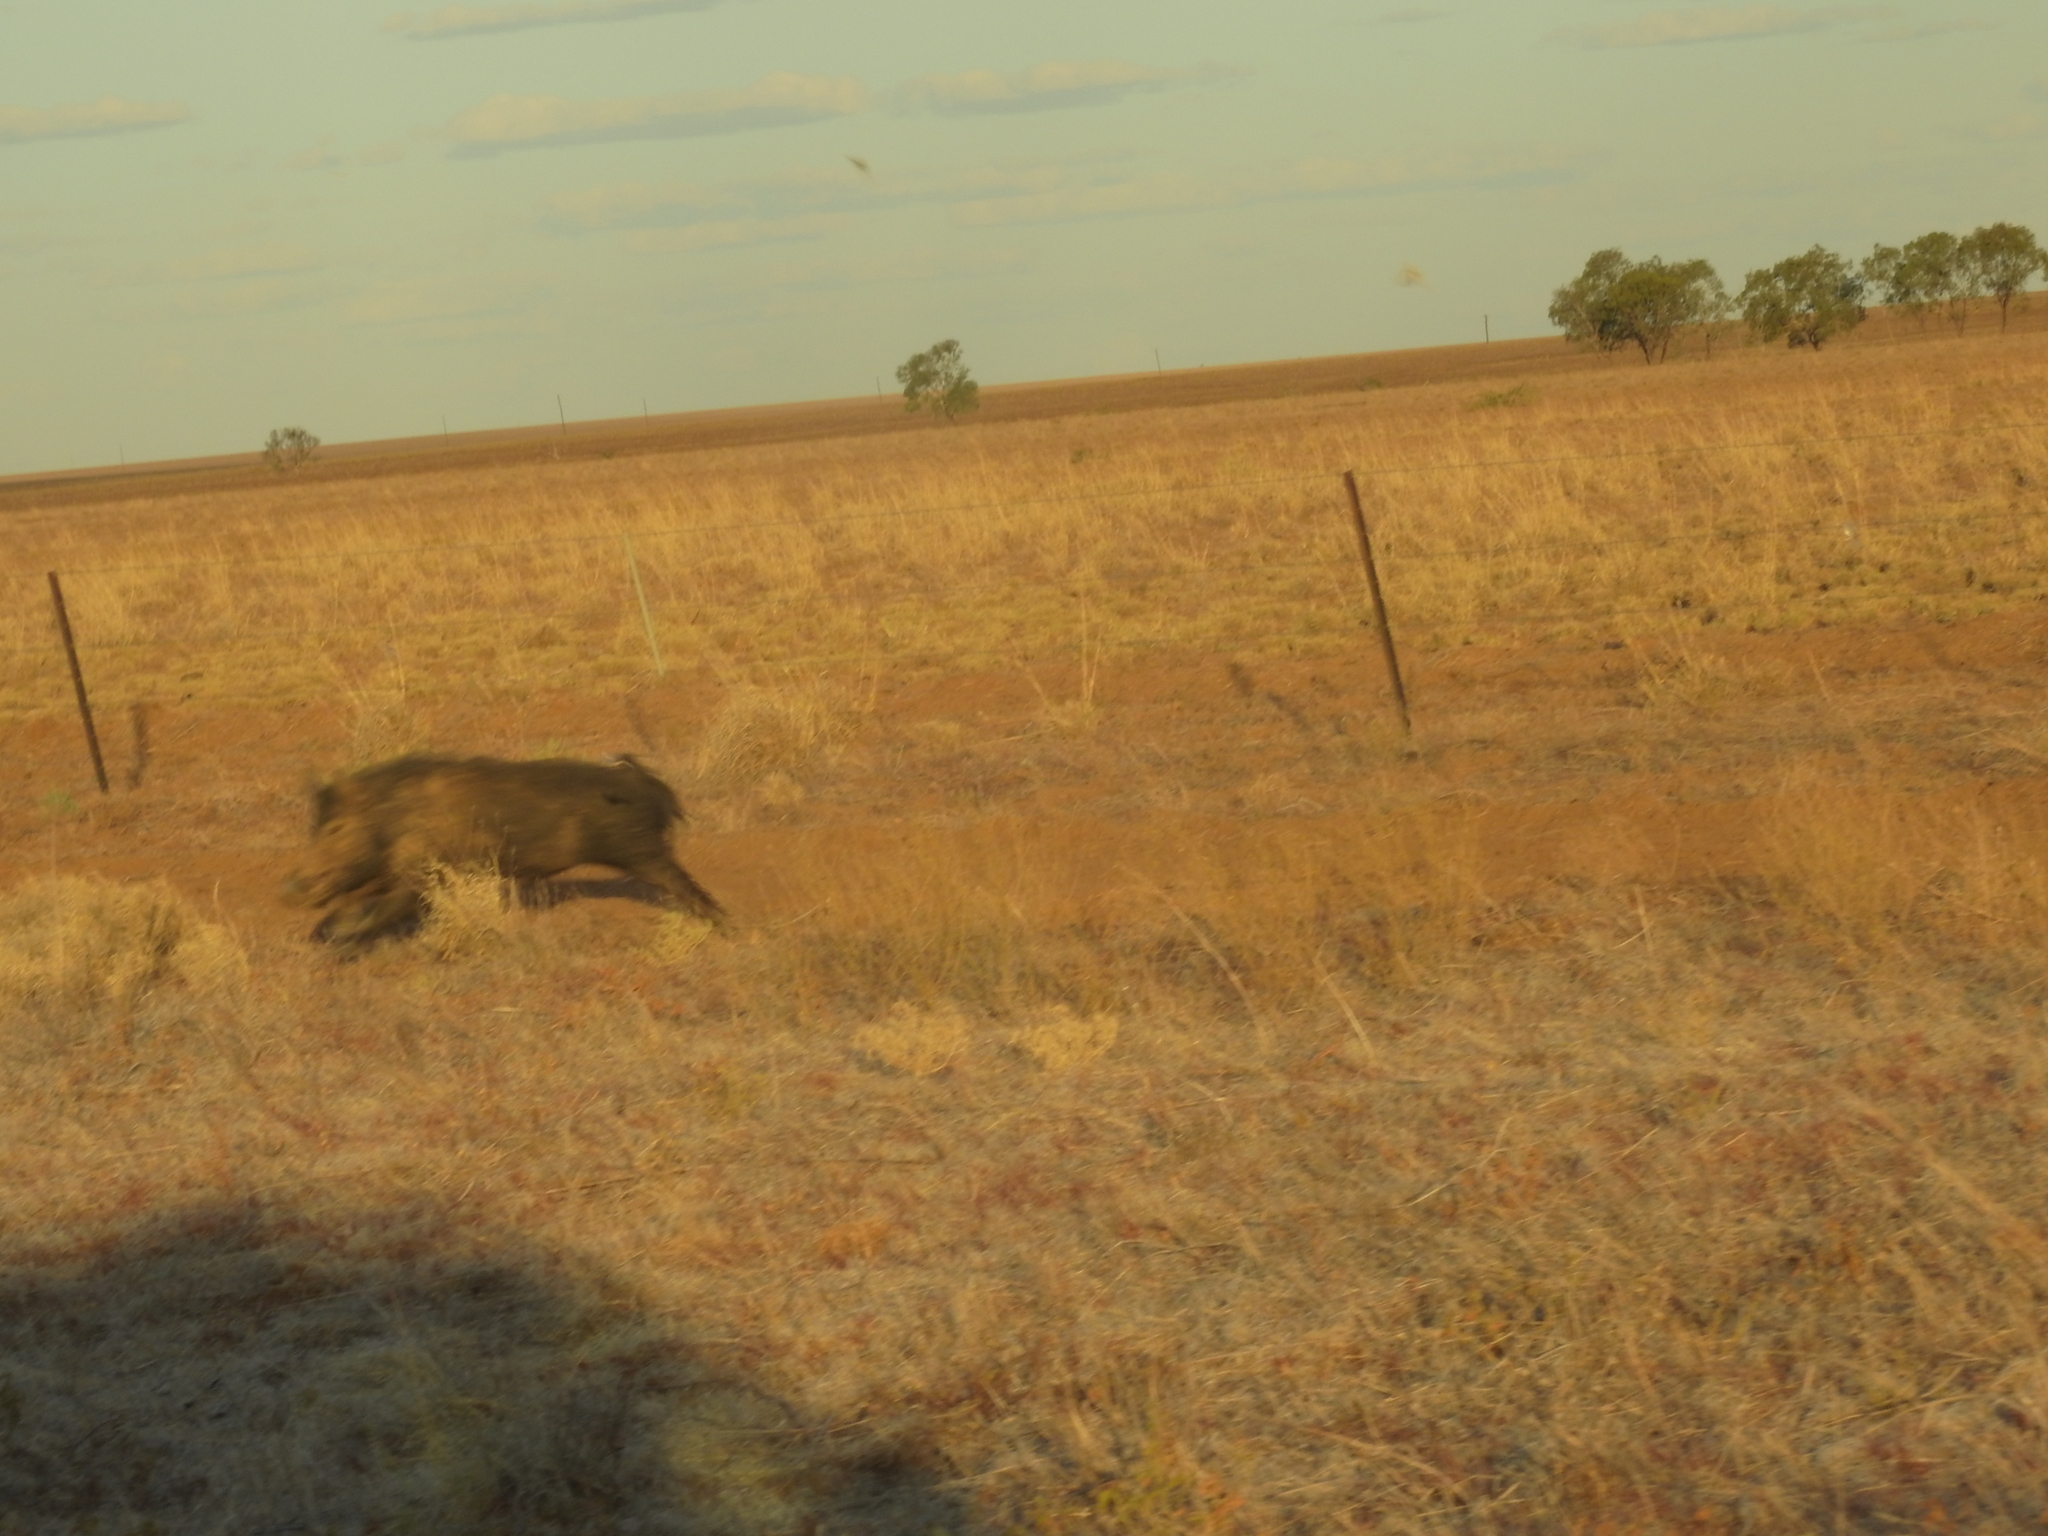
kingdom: Animalia
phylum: Chordata
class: Mammalia
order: Artiodactyla
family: Suidae
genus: Sus
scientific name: Sus scrofa
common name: Wild boar
